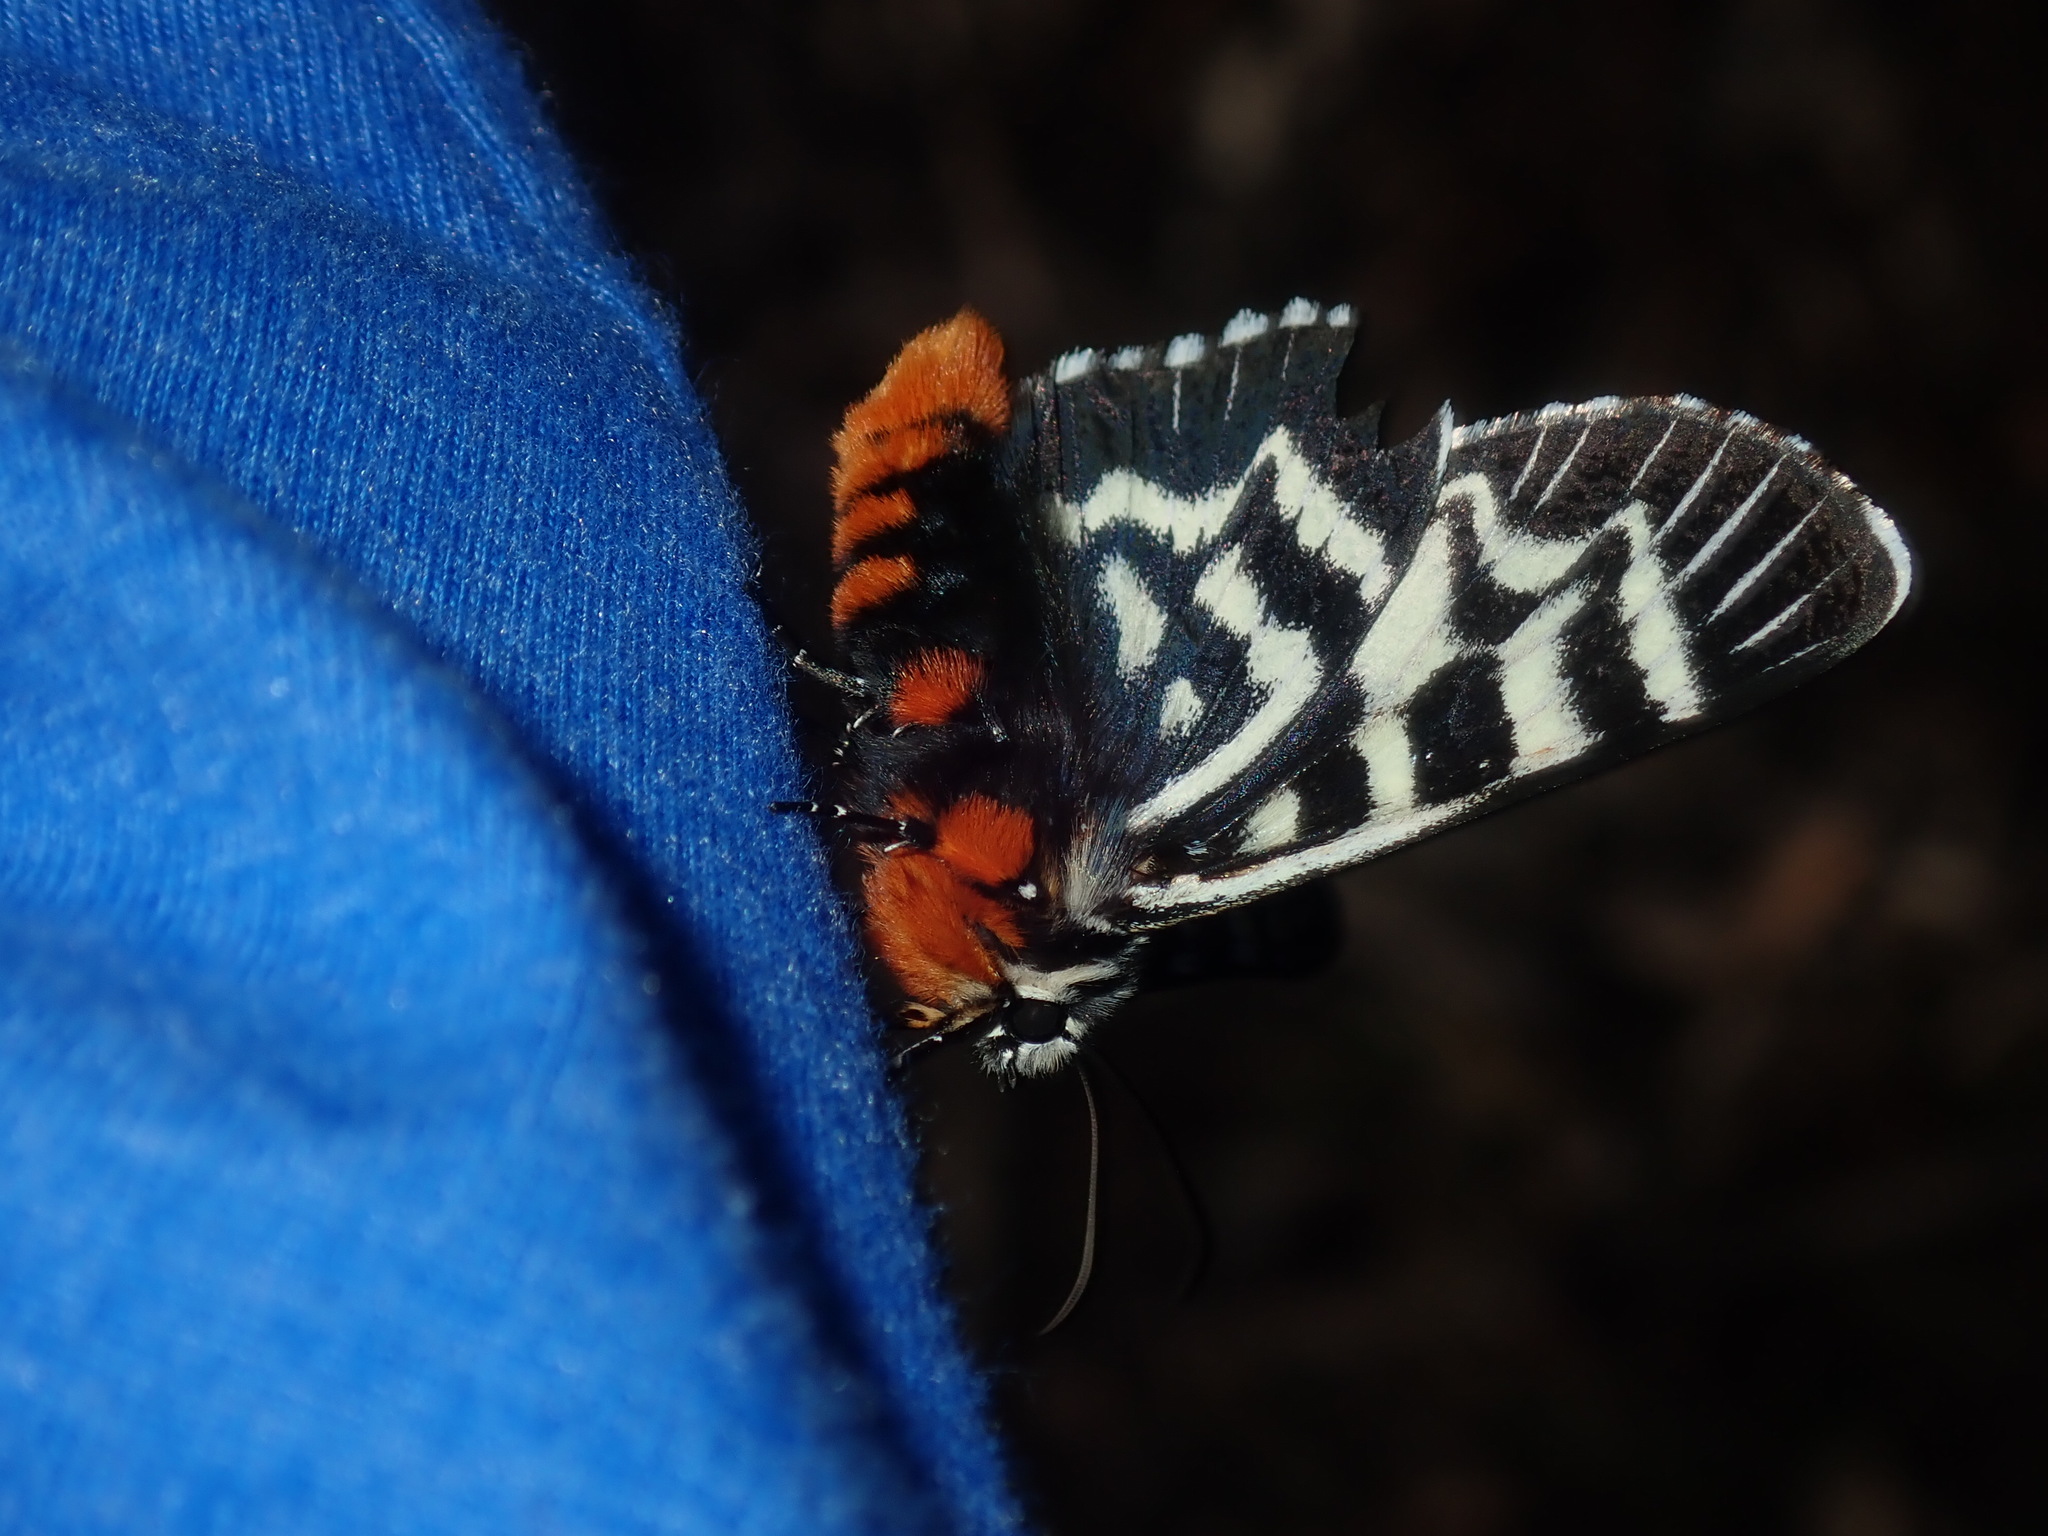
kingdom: Animalia
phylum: Arthropoda
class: Insecta
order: Lepidoptera
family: Noctuidae
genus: Comocrus
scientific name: Comocrus behri
